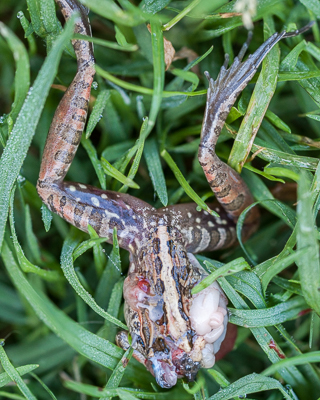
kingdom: Animalia
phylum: Chordata
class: Amphibia
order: Anura
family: Pyxicephalidae
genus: Strongylopus
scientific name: Strongylopus grayii
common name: Gray's stream frog
